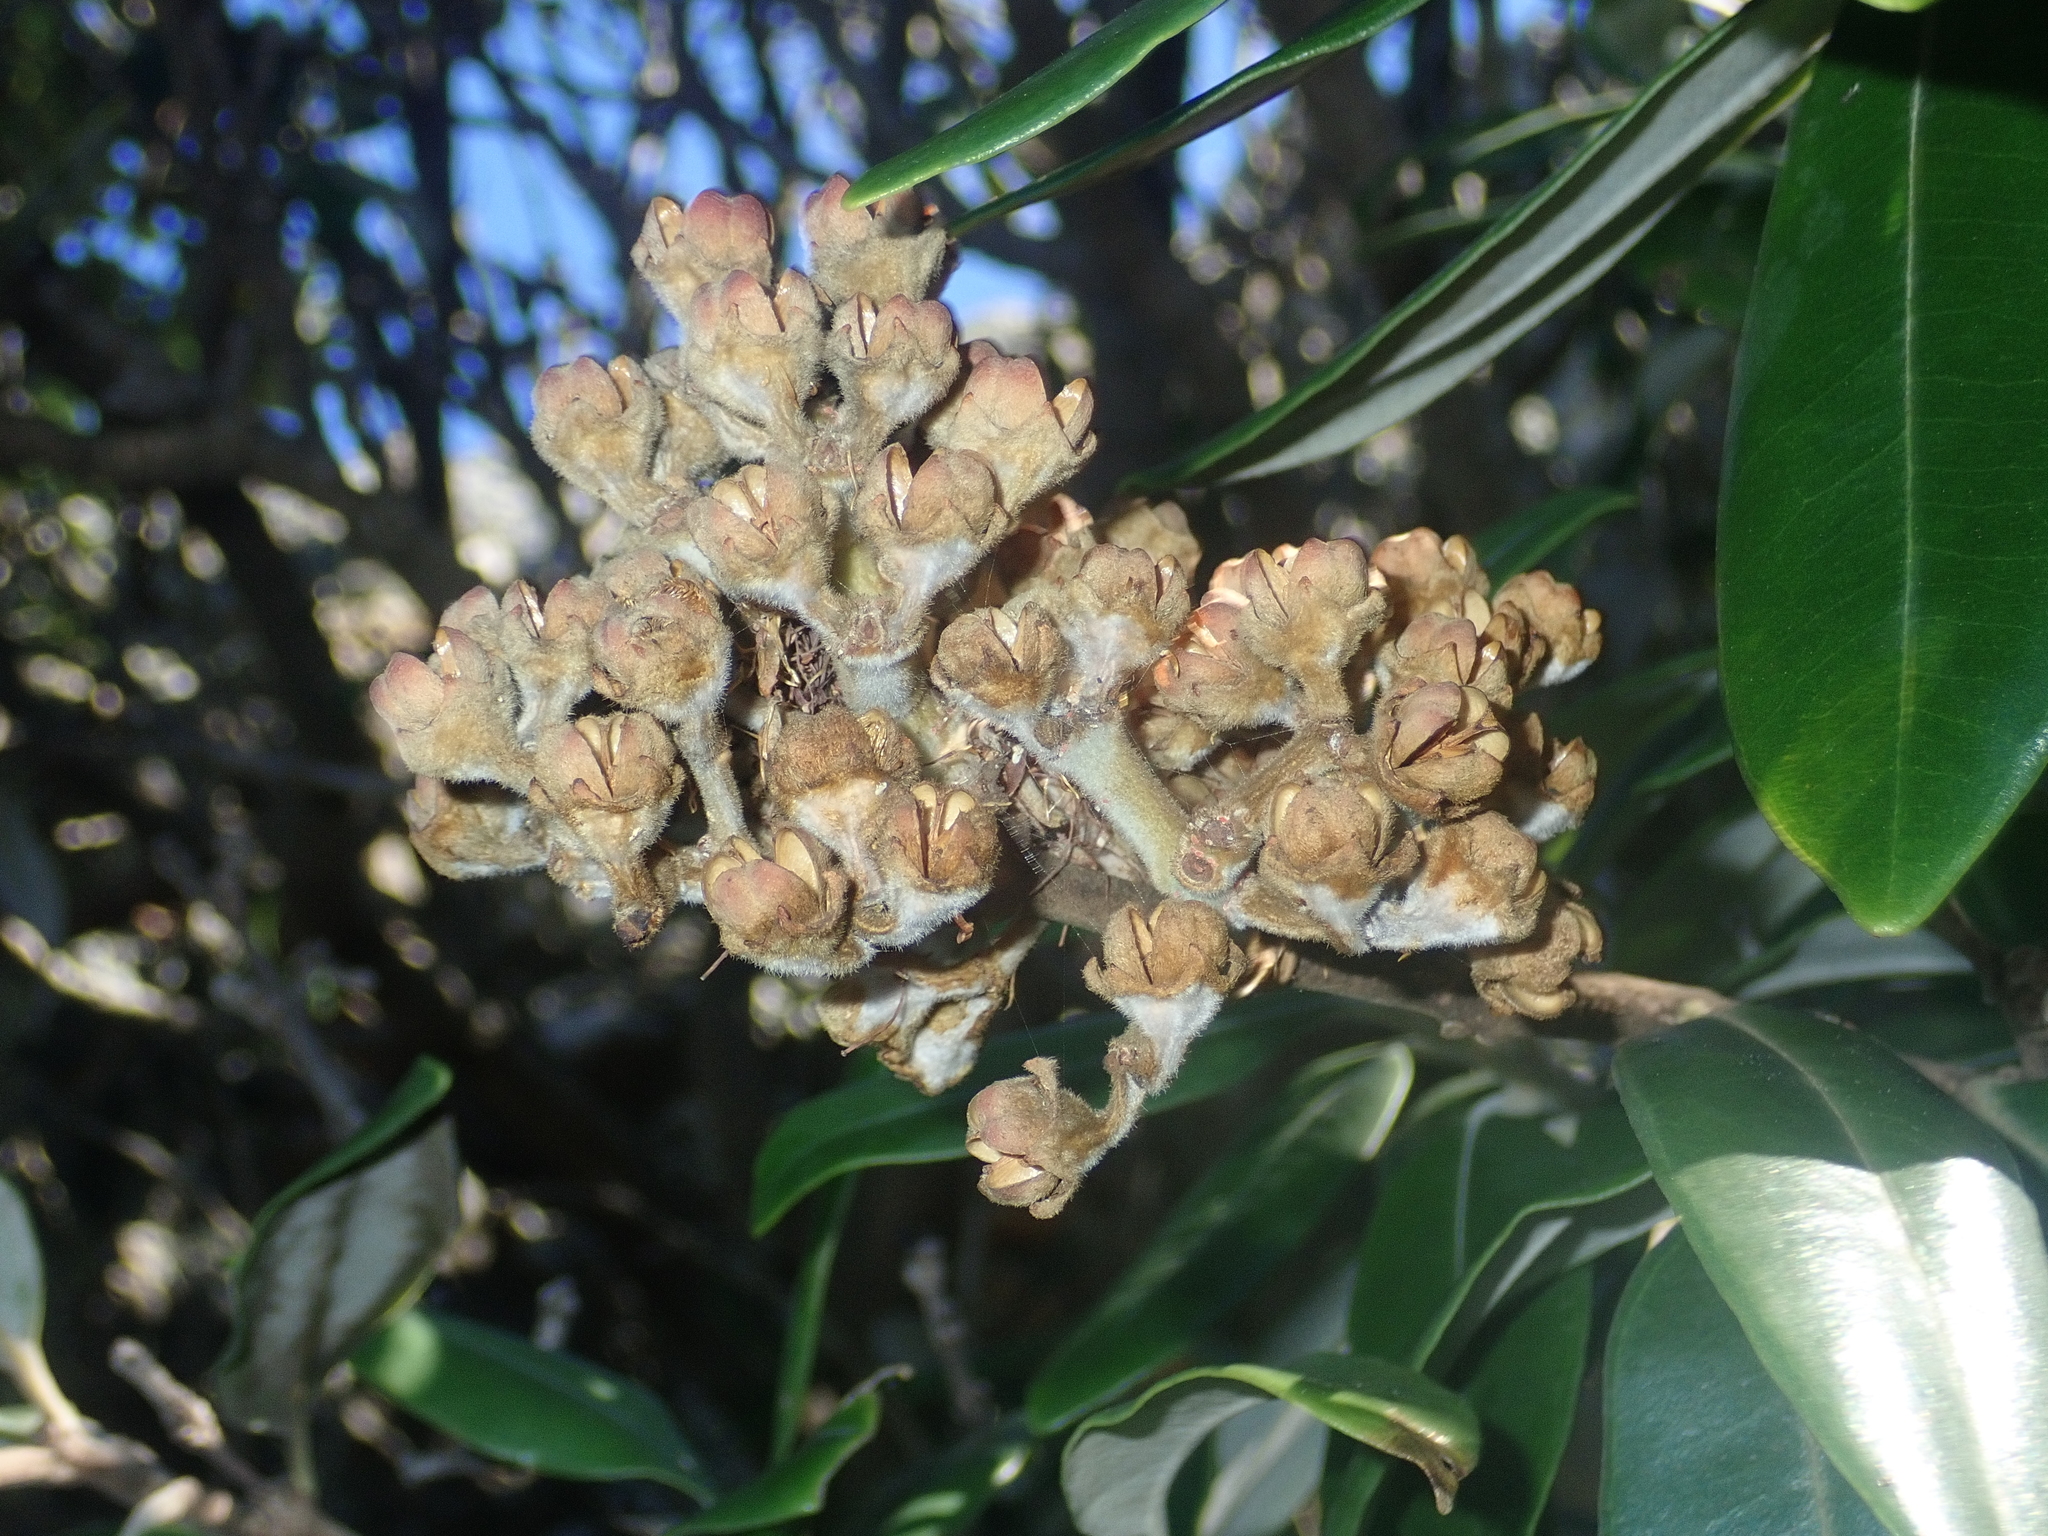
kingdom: Plantae
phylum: Tracheophyta
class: Magnoliopsida
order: Myrtales
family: Myrtaceae
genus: Metrosideros
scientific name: Metrosideros excelsa
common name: New zealand christmastree
